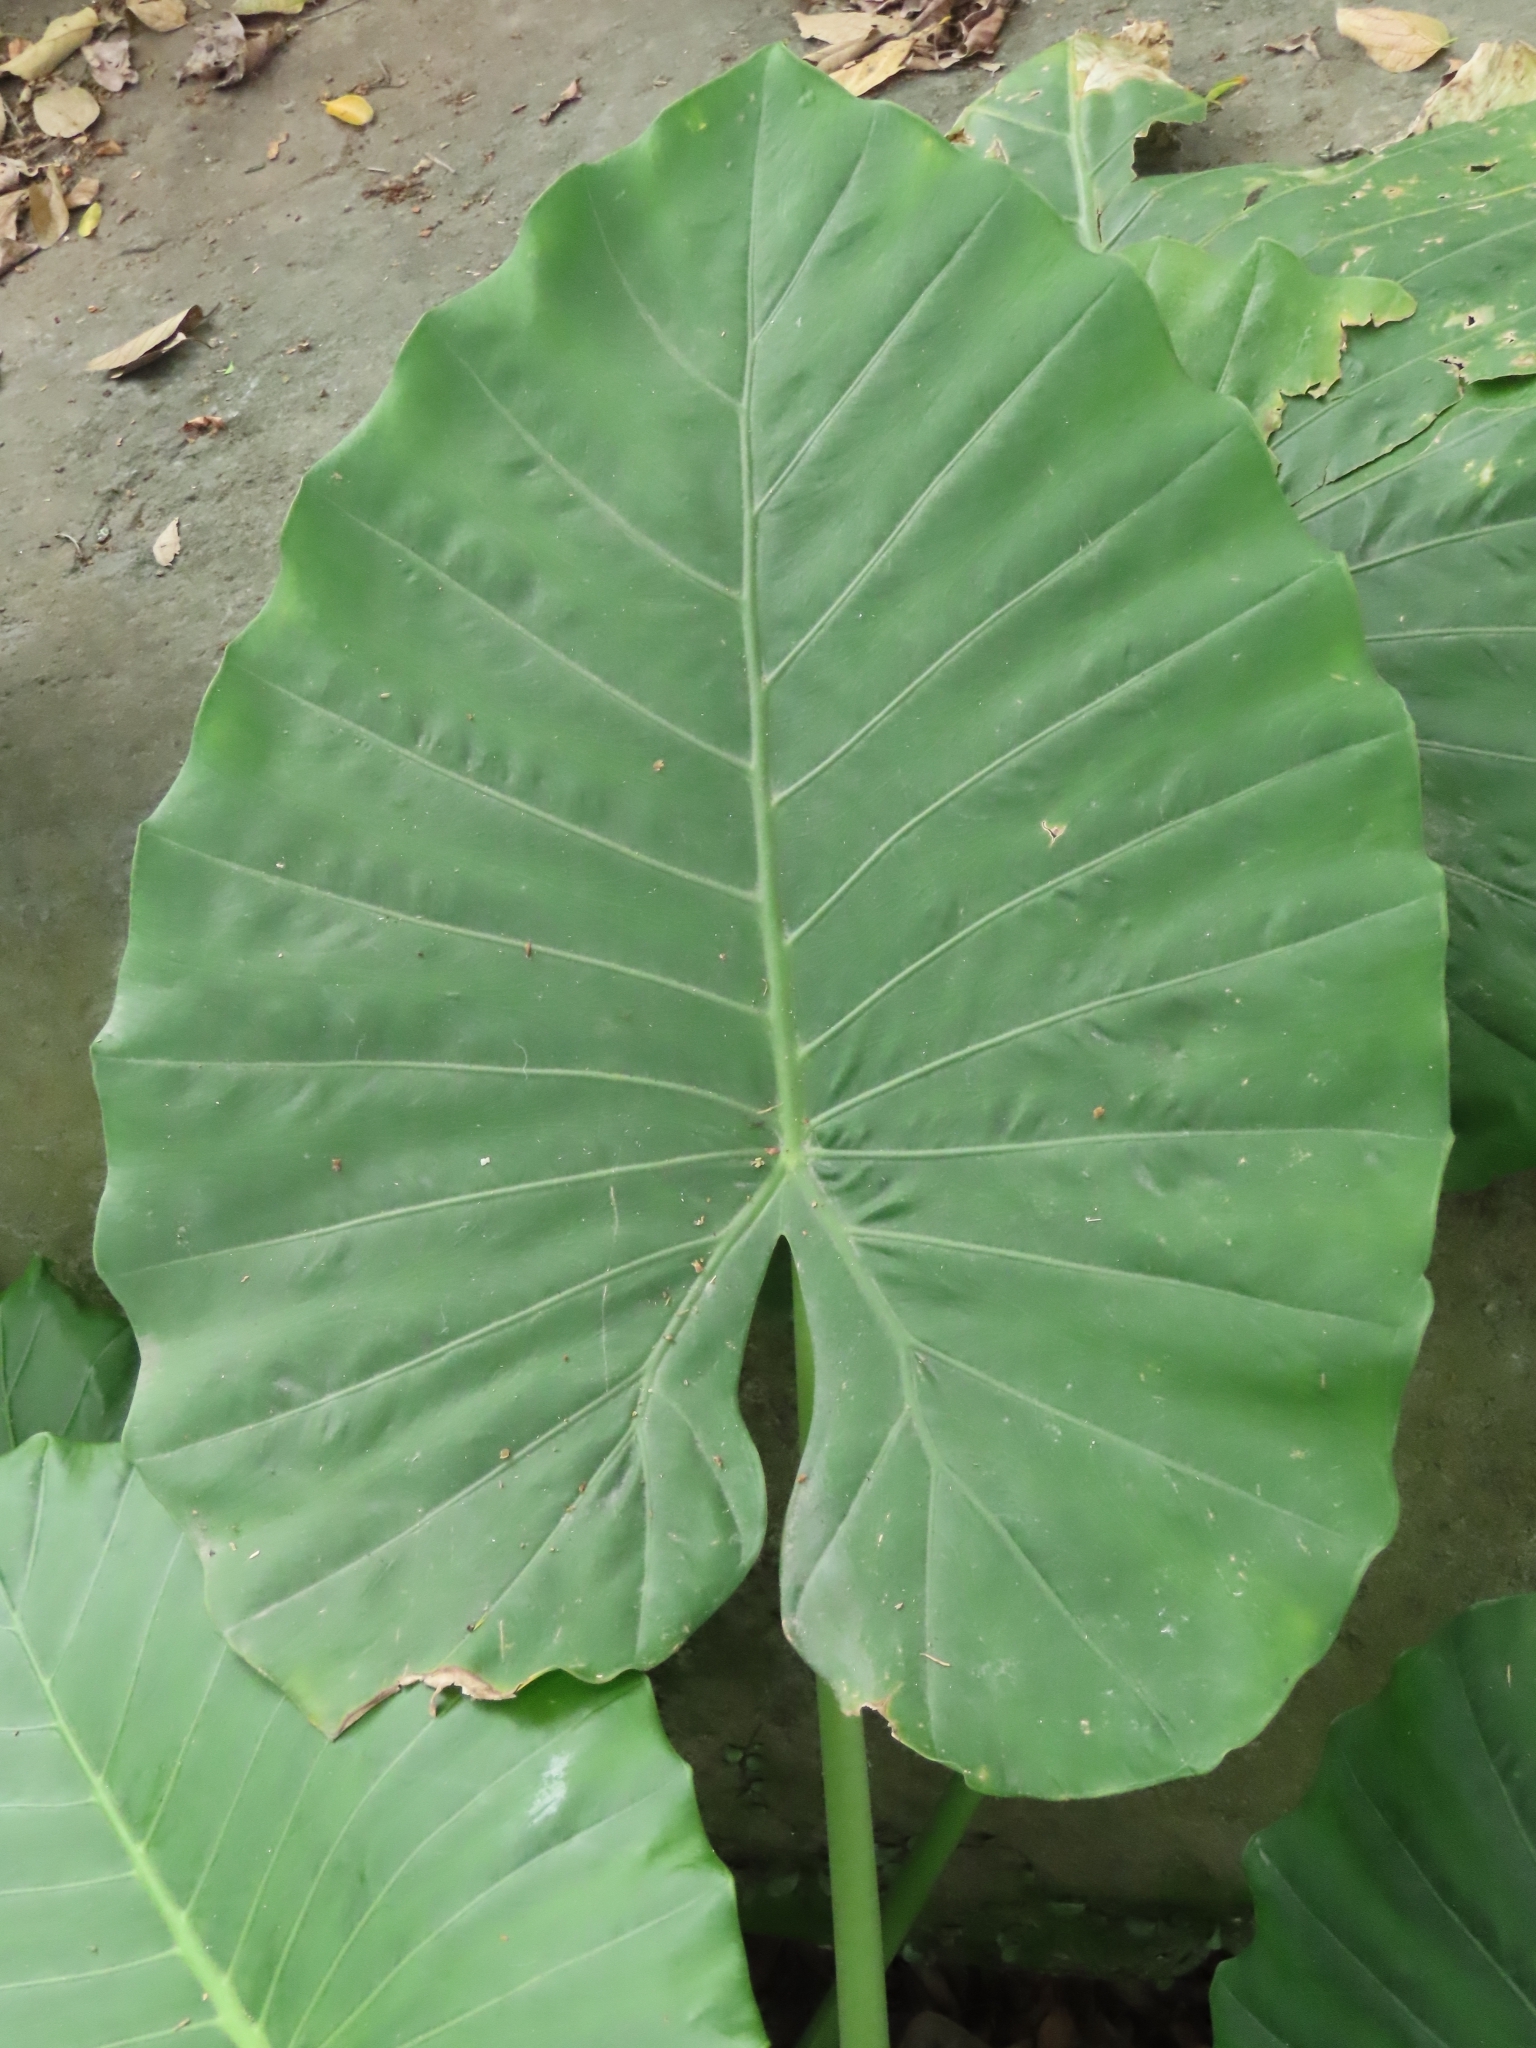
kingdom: Plantae
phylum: Tracheophyta
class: Liliopsida
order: Alismatales
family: Araceae
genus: Alocasia
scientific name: Alocasia odora
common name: Asian taro
